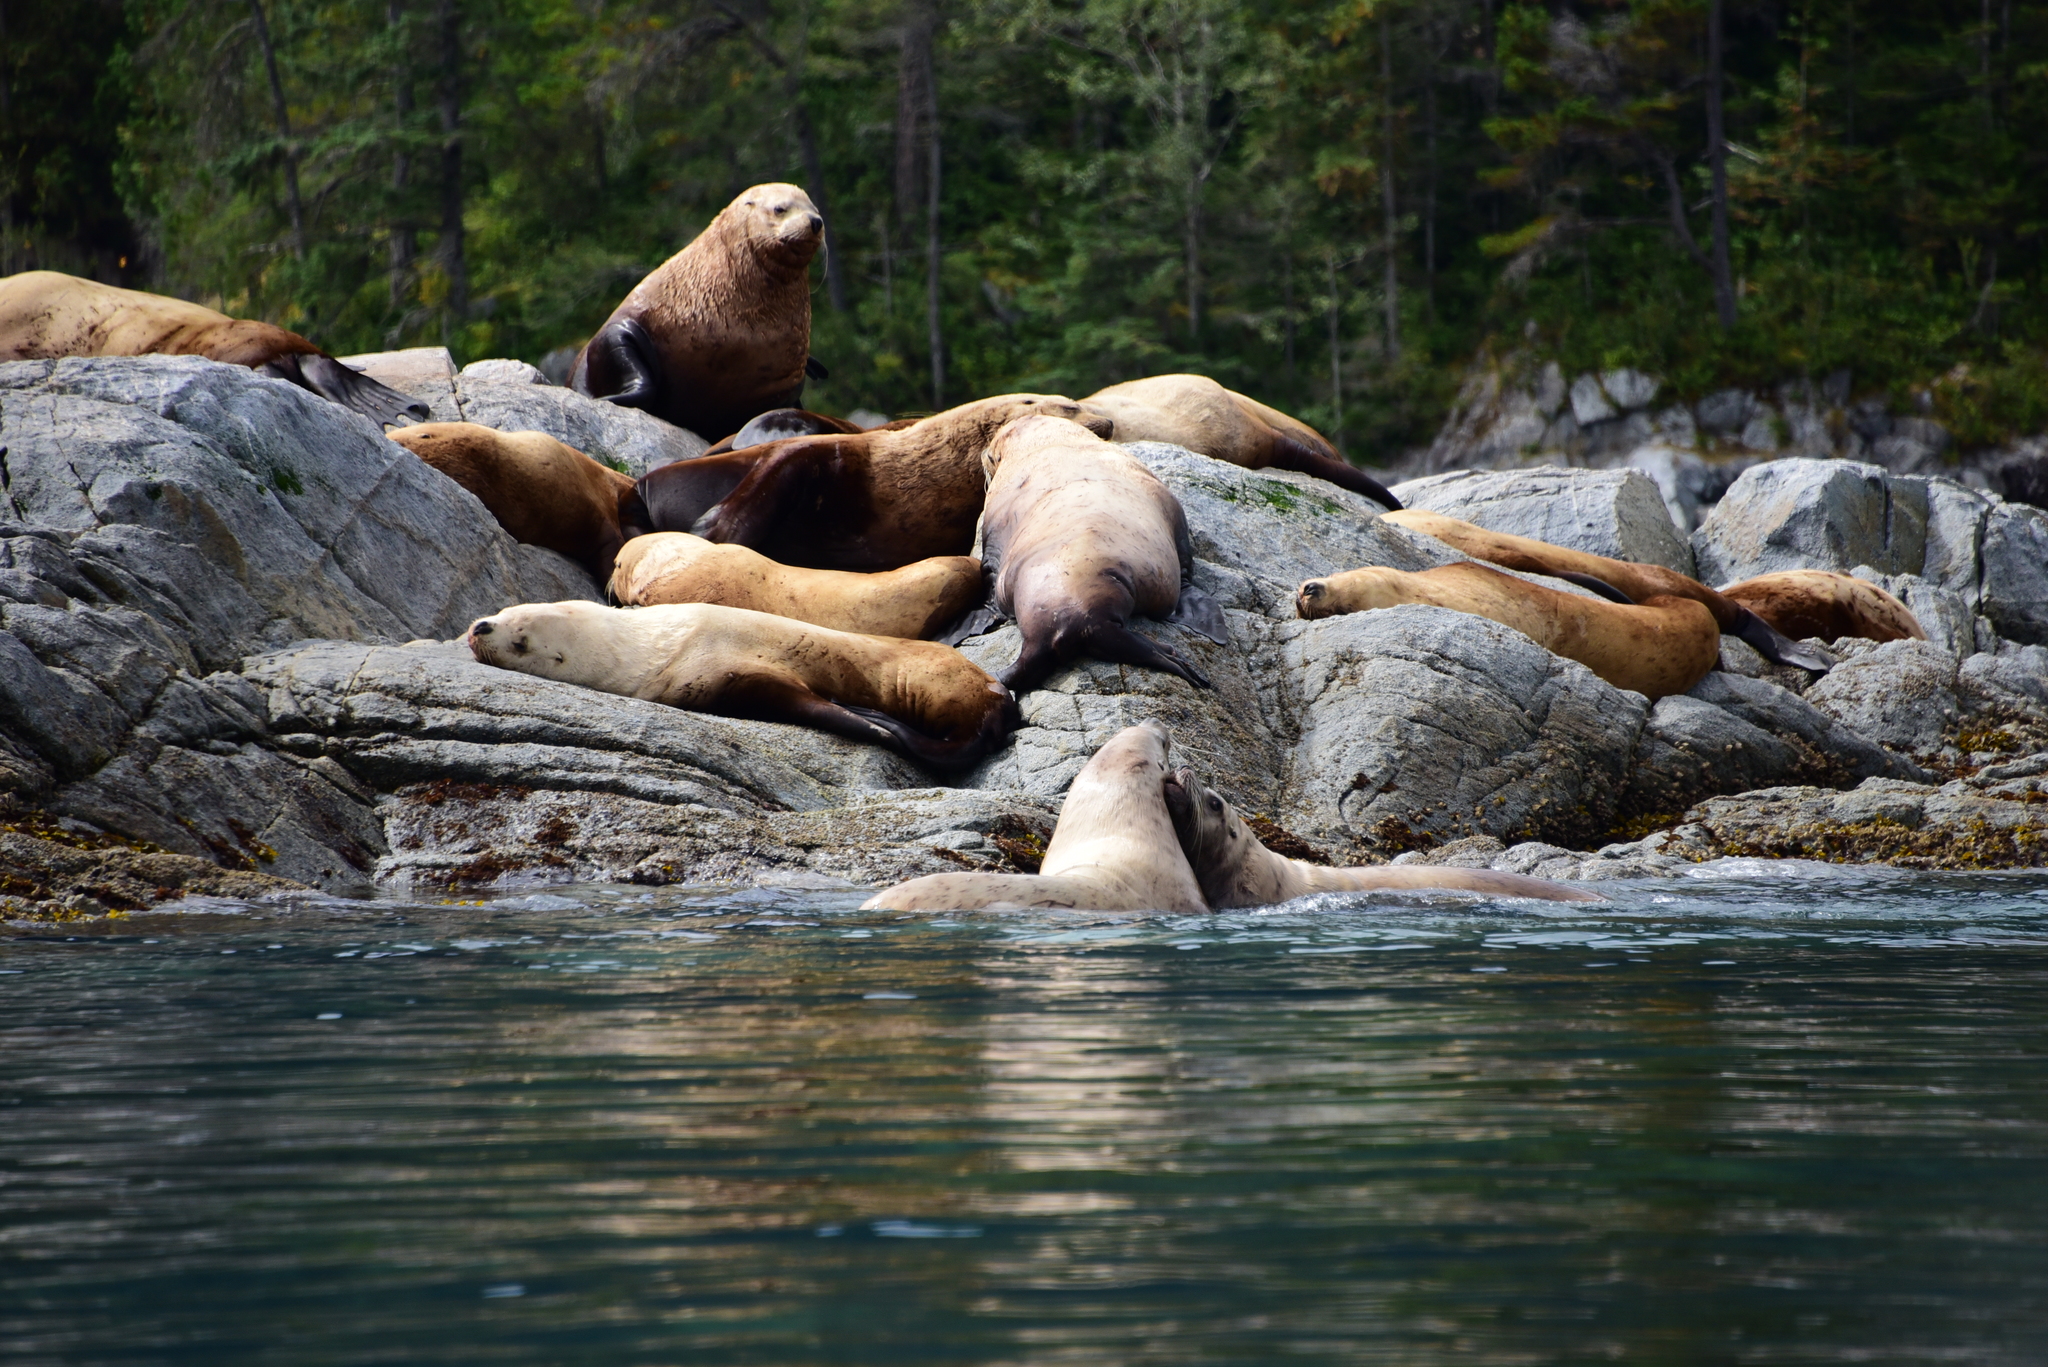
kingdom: Animalia
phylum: Chordata
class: Mammalia
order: Carnivora
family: Otariidae
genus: Eumetopias
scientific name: Eumetopias jubatus
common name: Steller sea lion
